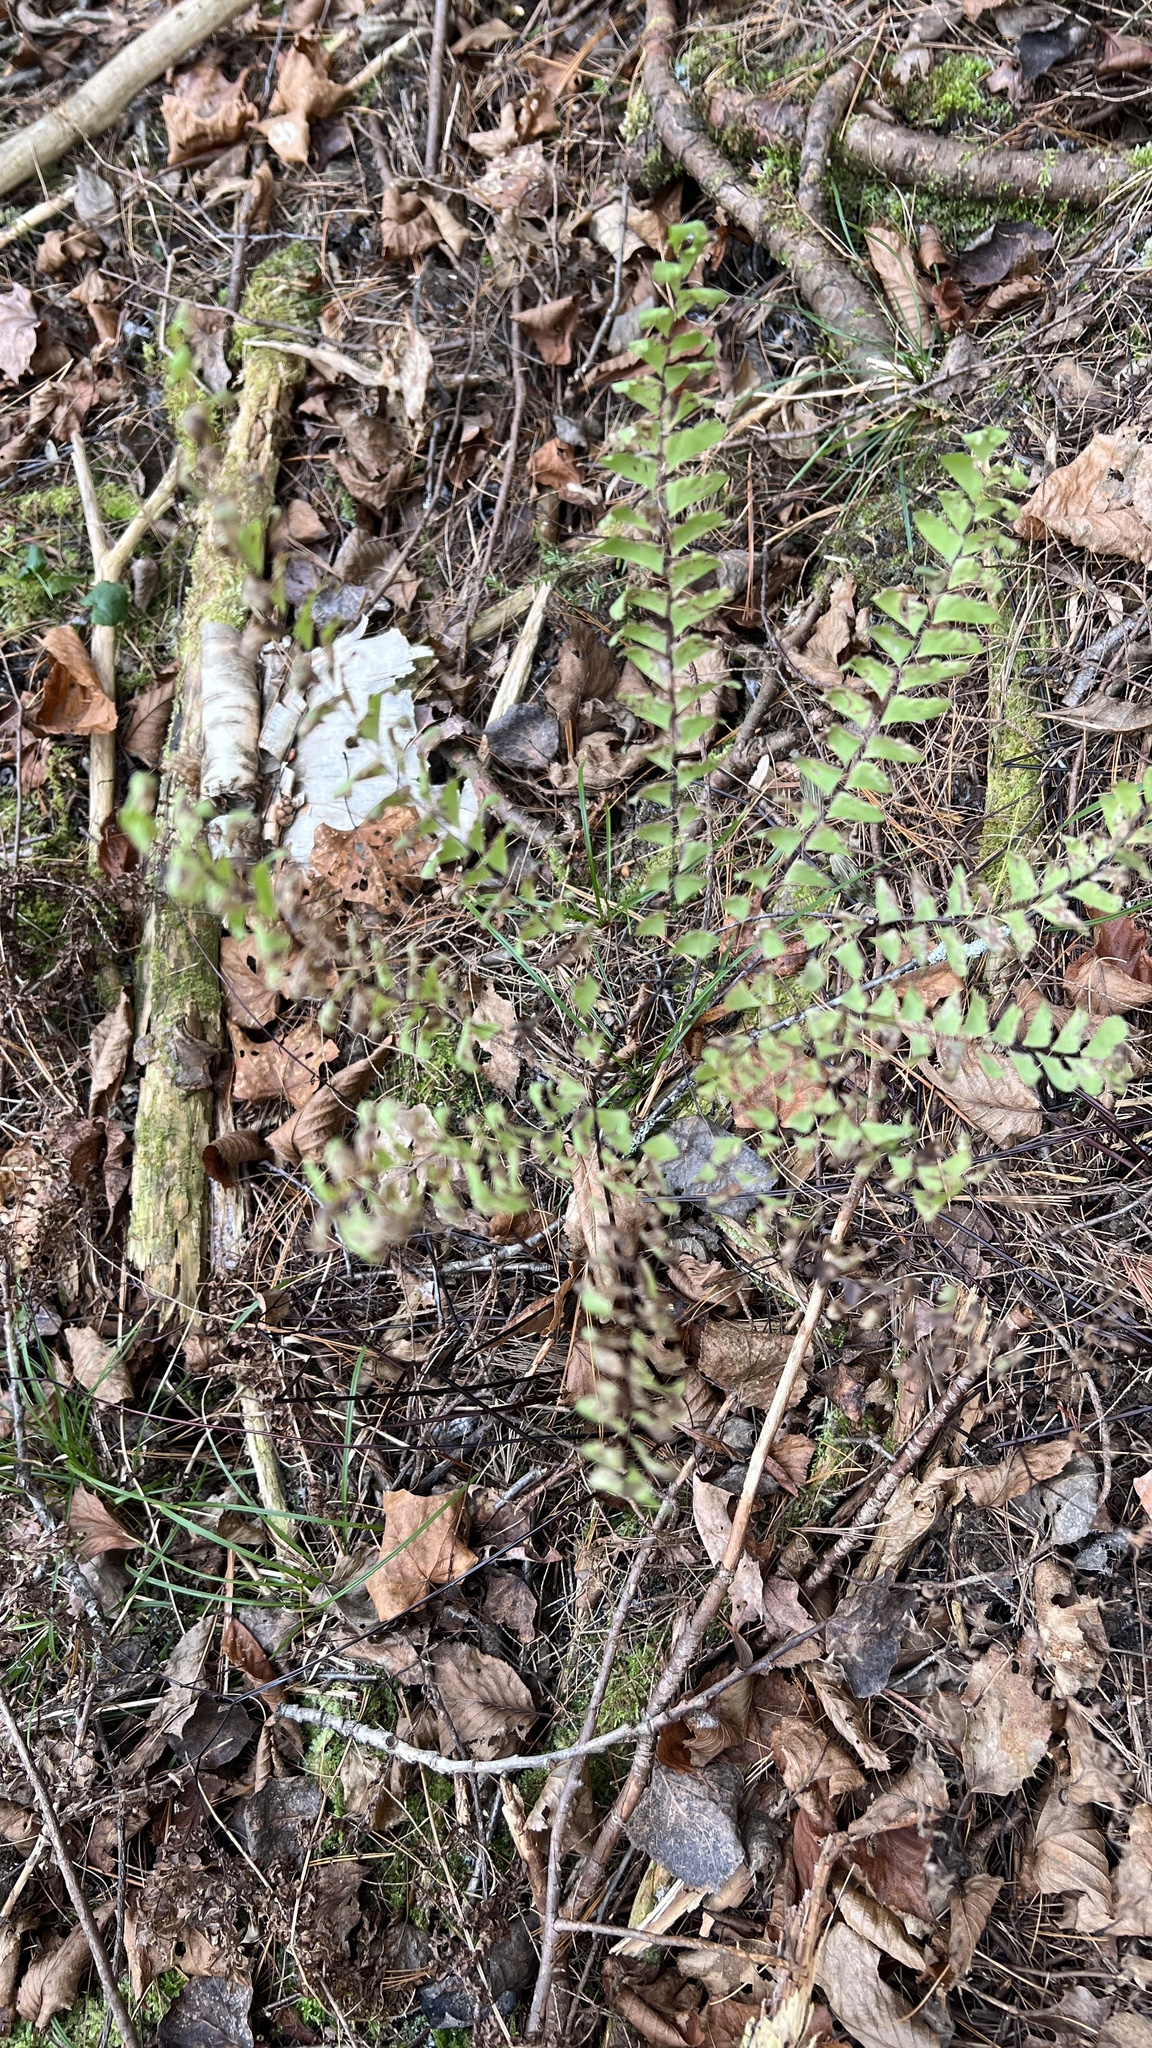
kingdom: Plantae
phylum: Tracheophyta
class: Polypodiopsida
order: Polypodiales
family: Pteridaceae
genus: Adiantum
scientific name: Adiantum pedatum
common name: Five-finger fern
